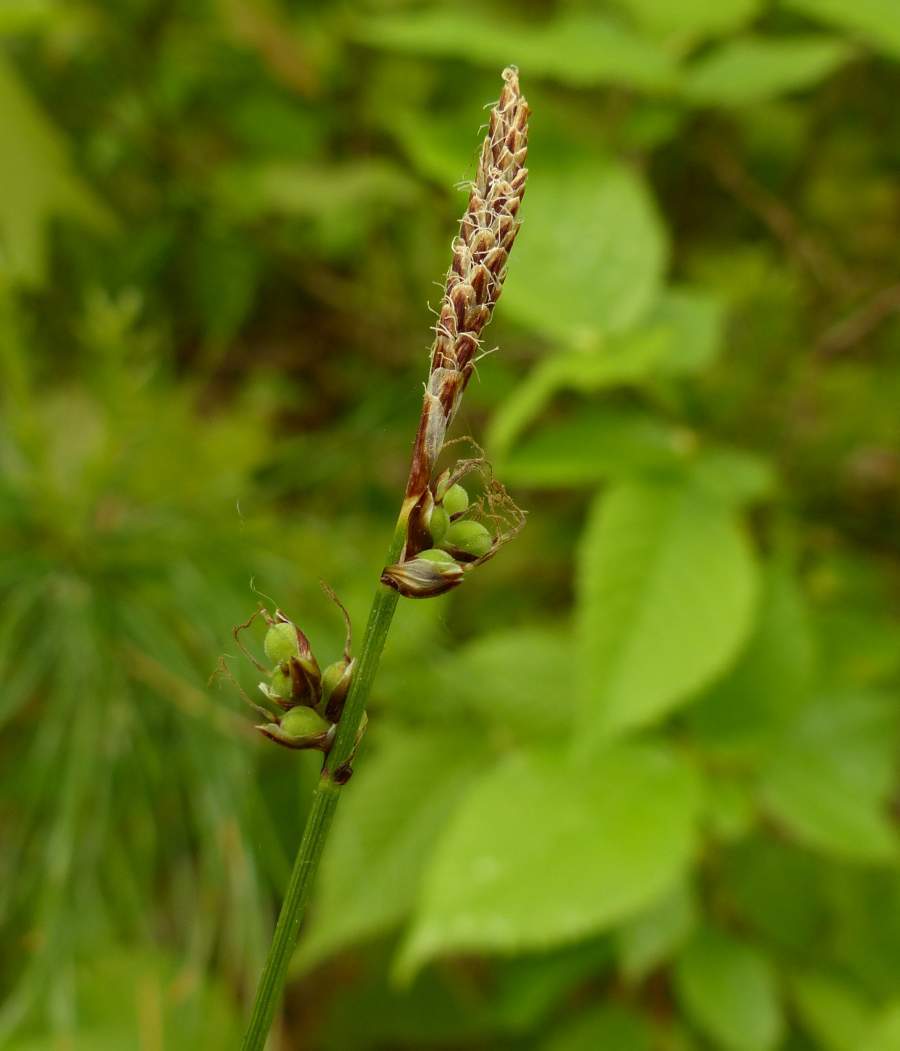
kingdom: Plantae
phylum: Tracheophyta
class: Liliopsida
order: Poales
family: Cyperaceae
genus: Carex
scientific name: Carex pensylvanica
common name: Common oak sedge
